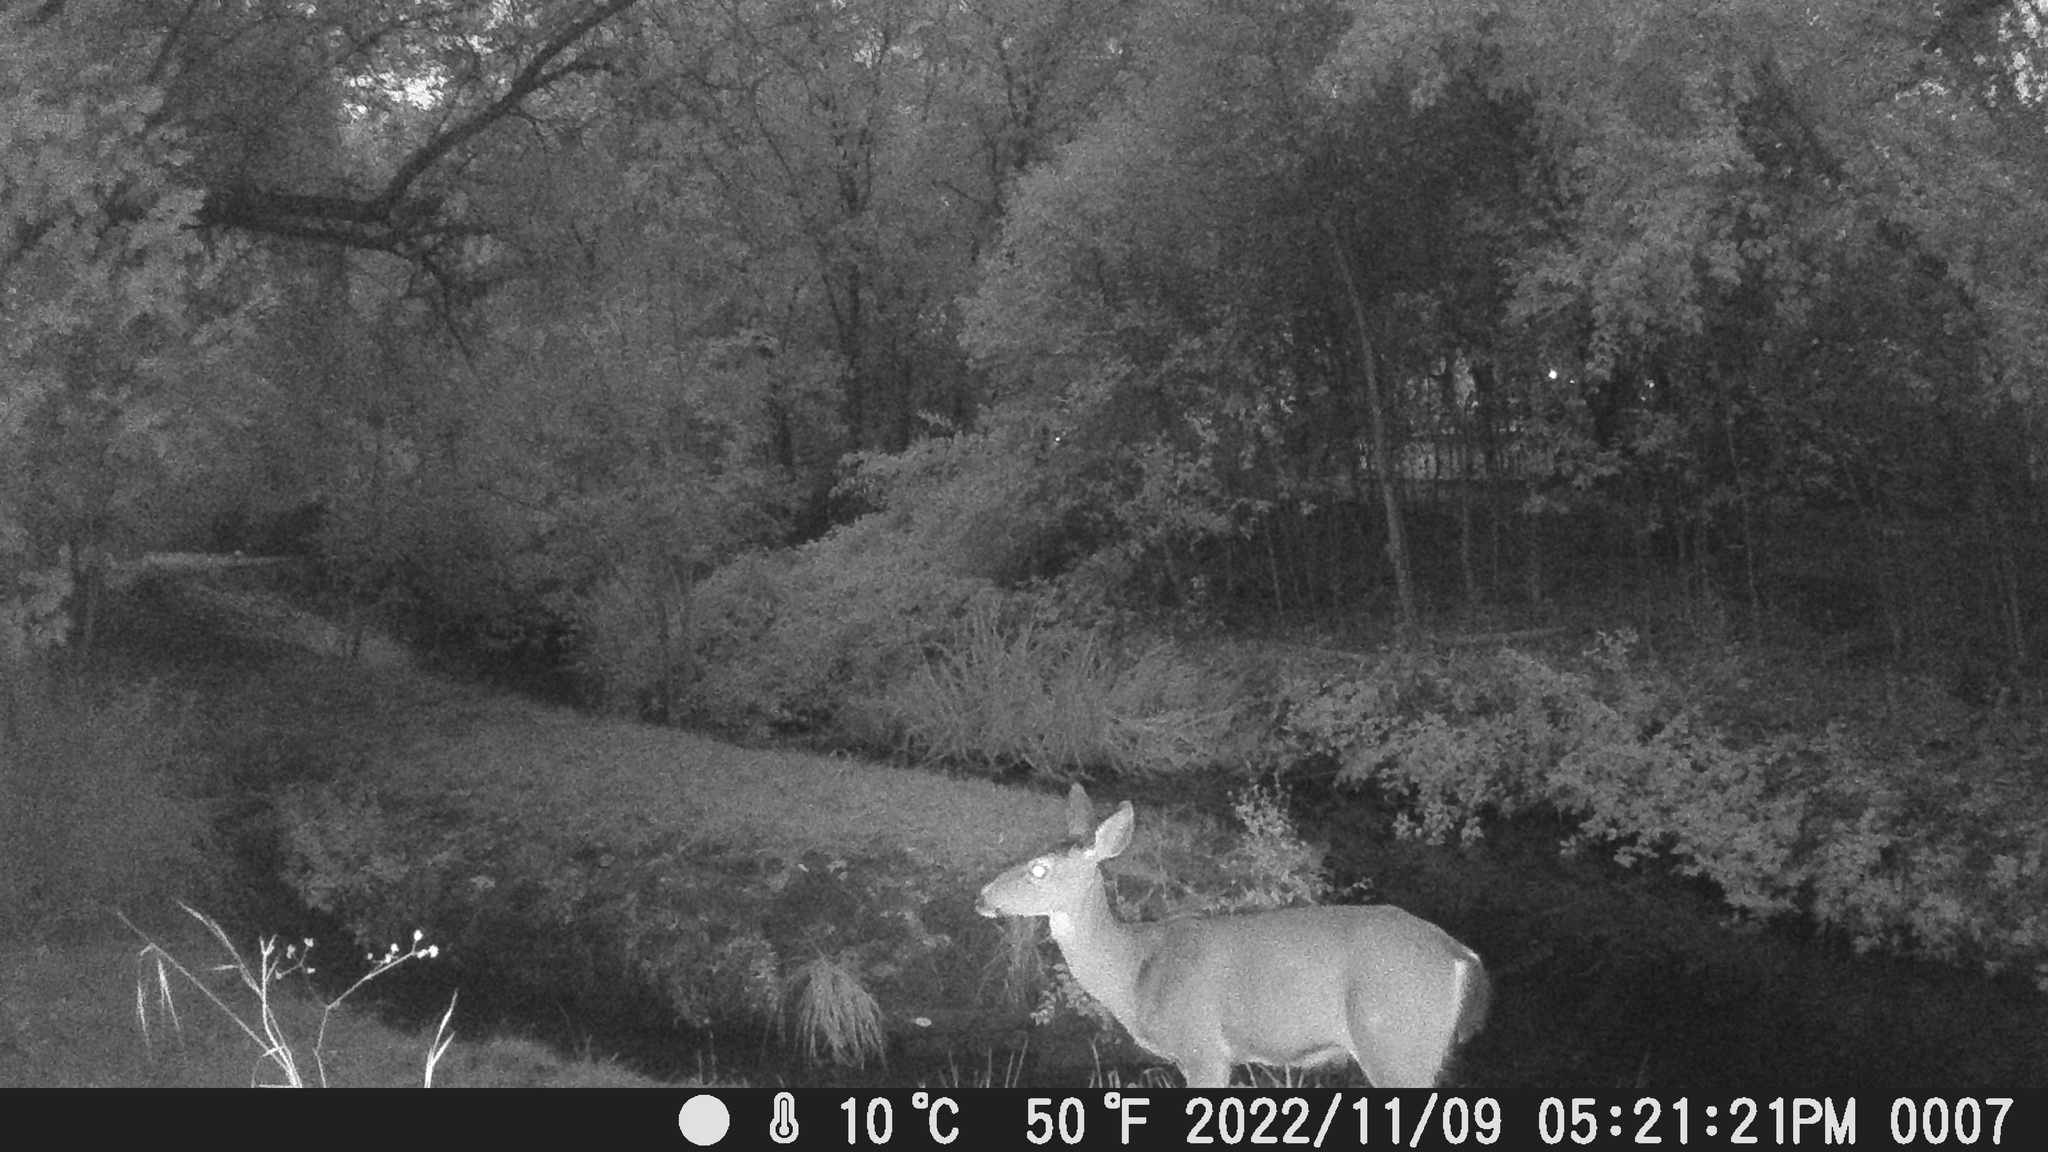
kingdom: Animalia
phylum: Chordata
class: Mammalia
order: Artiodactyla
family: Cervidae
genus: Odocoileus
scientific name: Odocoileus hemionus
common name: Mule deer
